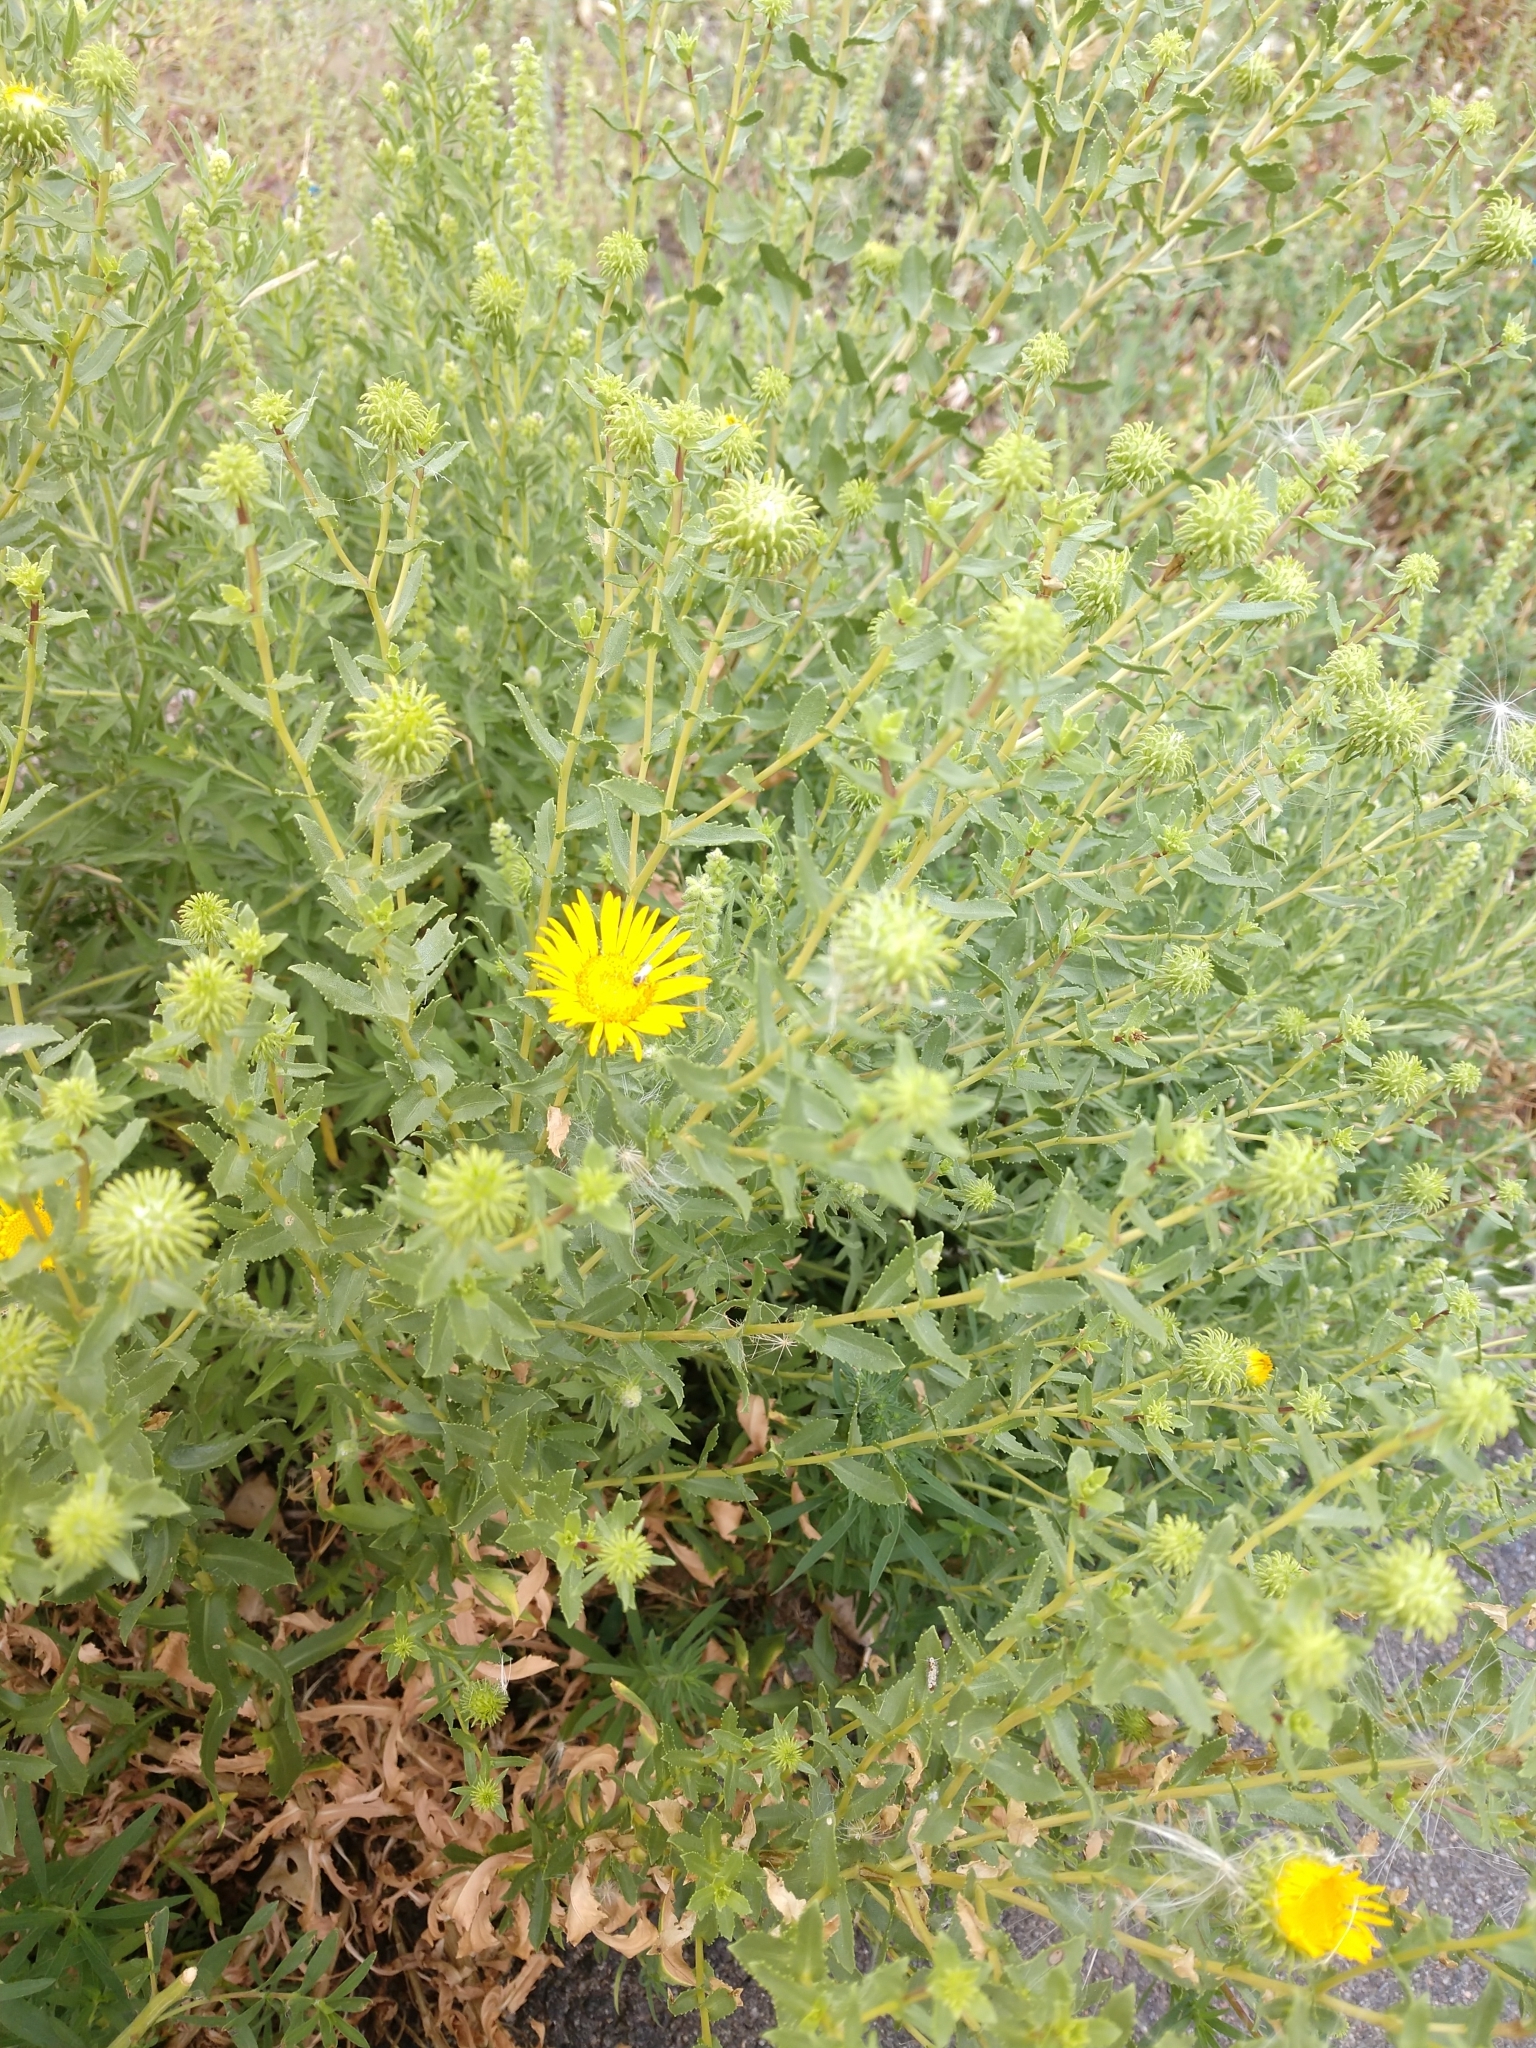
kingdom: Plantae
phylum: Tracheophyta
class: Magnoliopsida
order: Asterales
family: Asteraceae
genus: Grindelia
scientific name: Grindelia squarrosa
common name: Curly-cup gumweed
